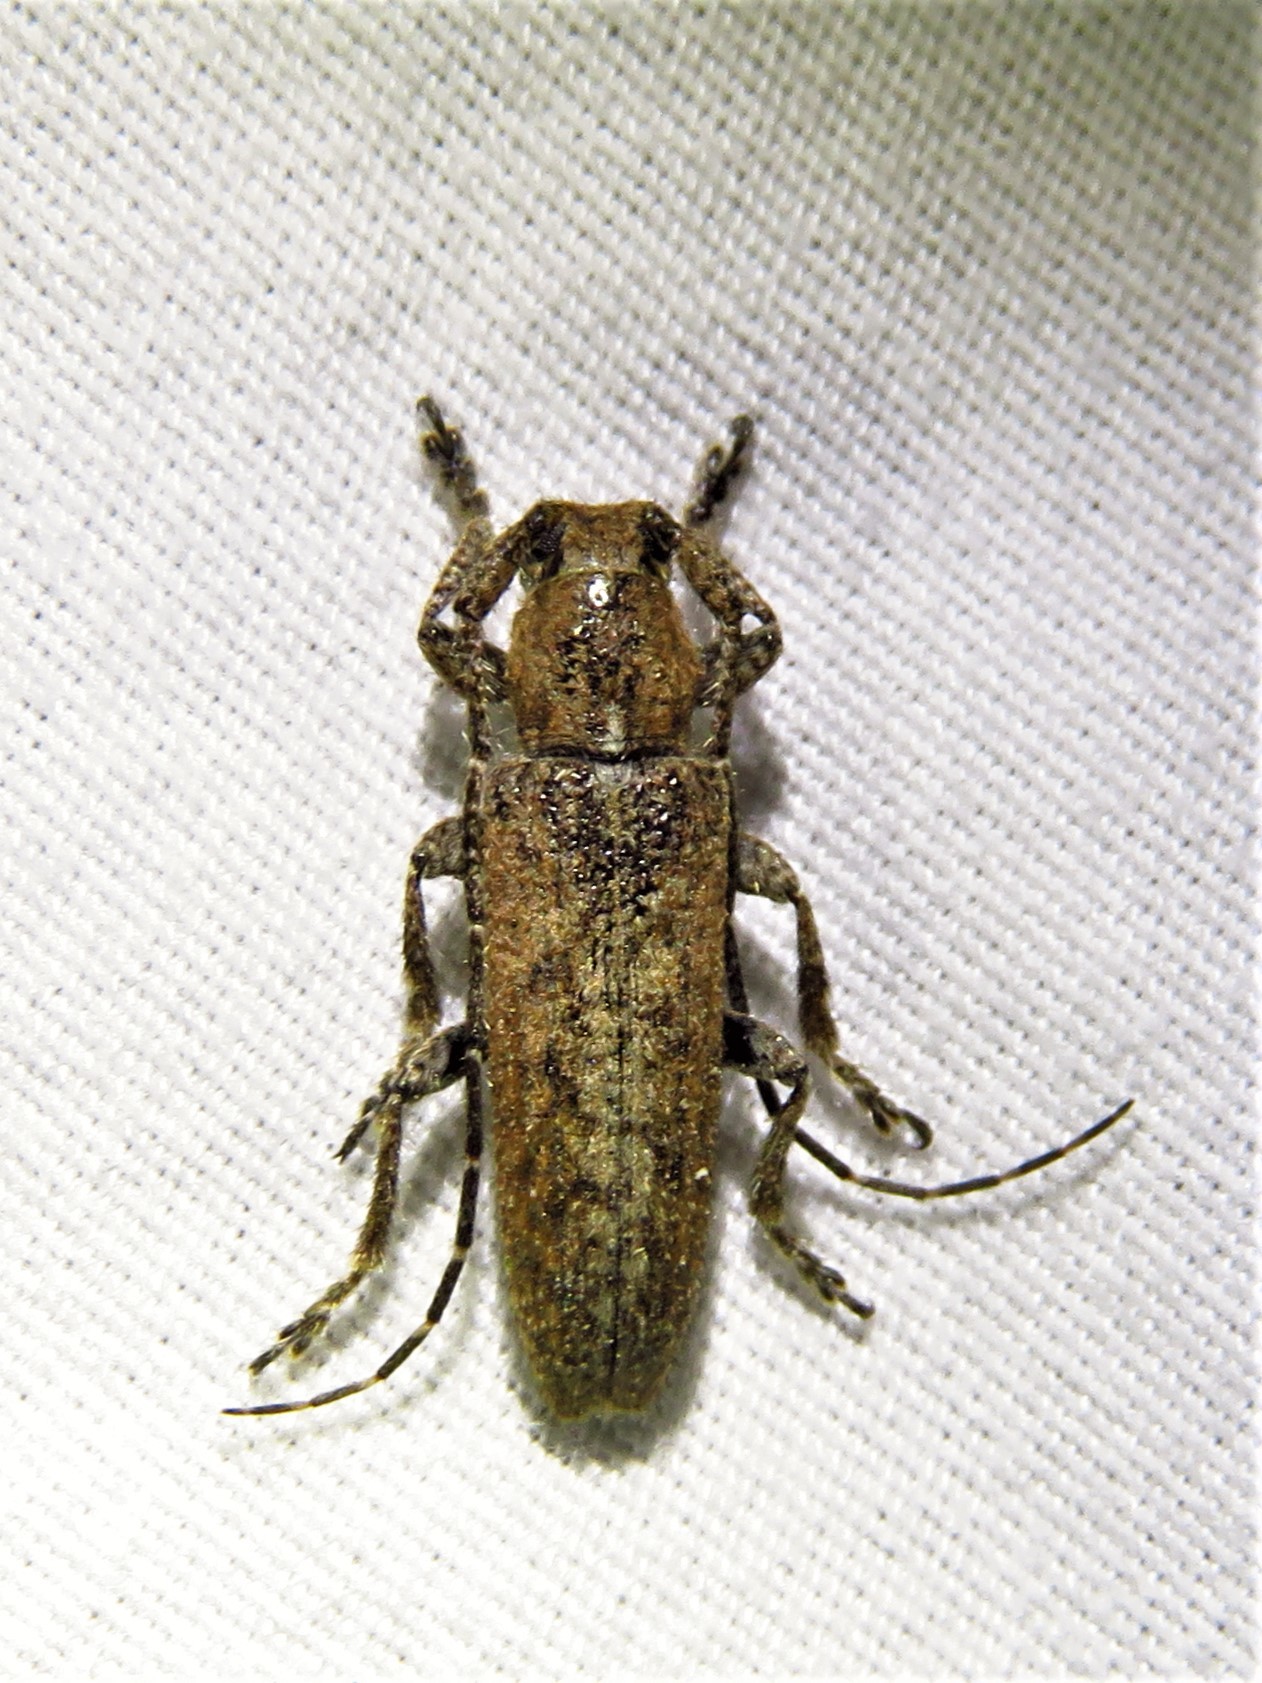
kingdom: Animalia
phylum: Arthropoda
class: Insecta
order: Coleoptera
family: Cerambycidae
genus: Ataxia
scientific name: Ataxia crypta
